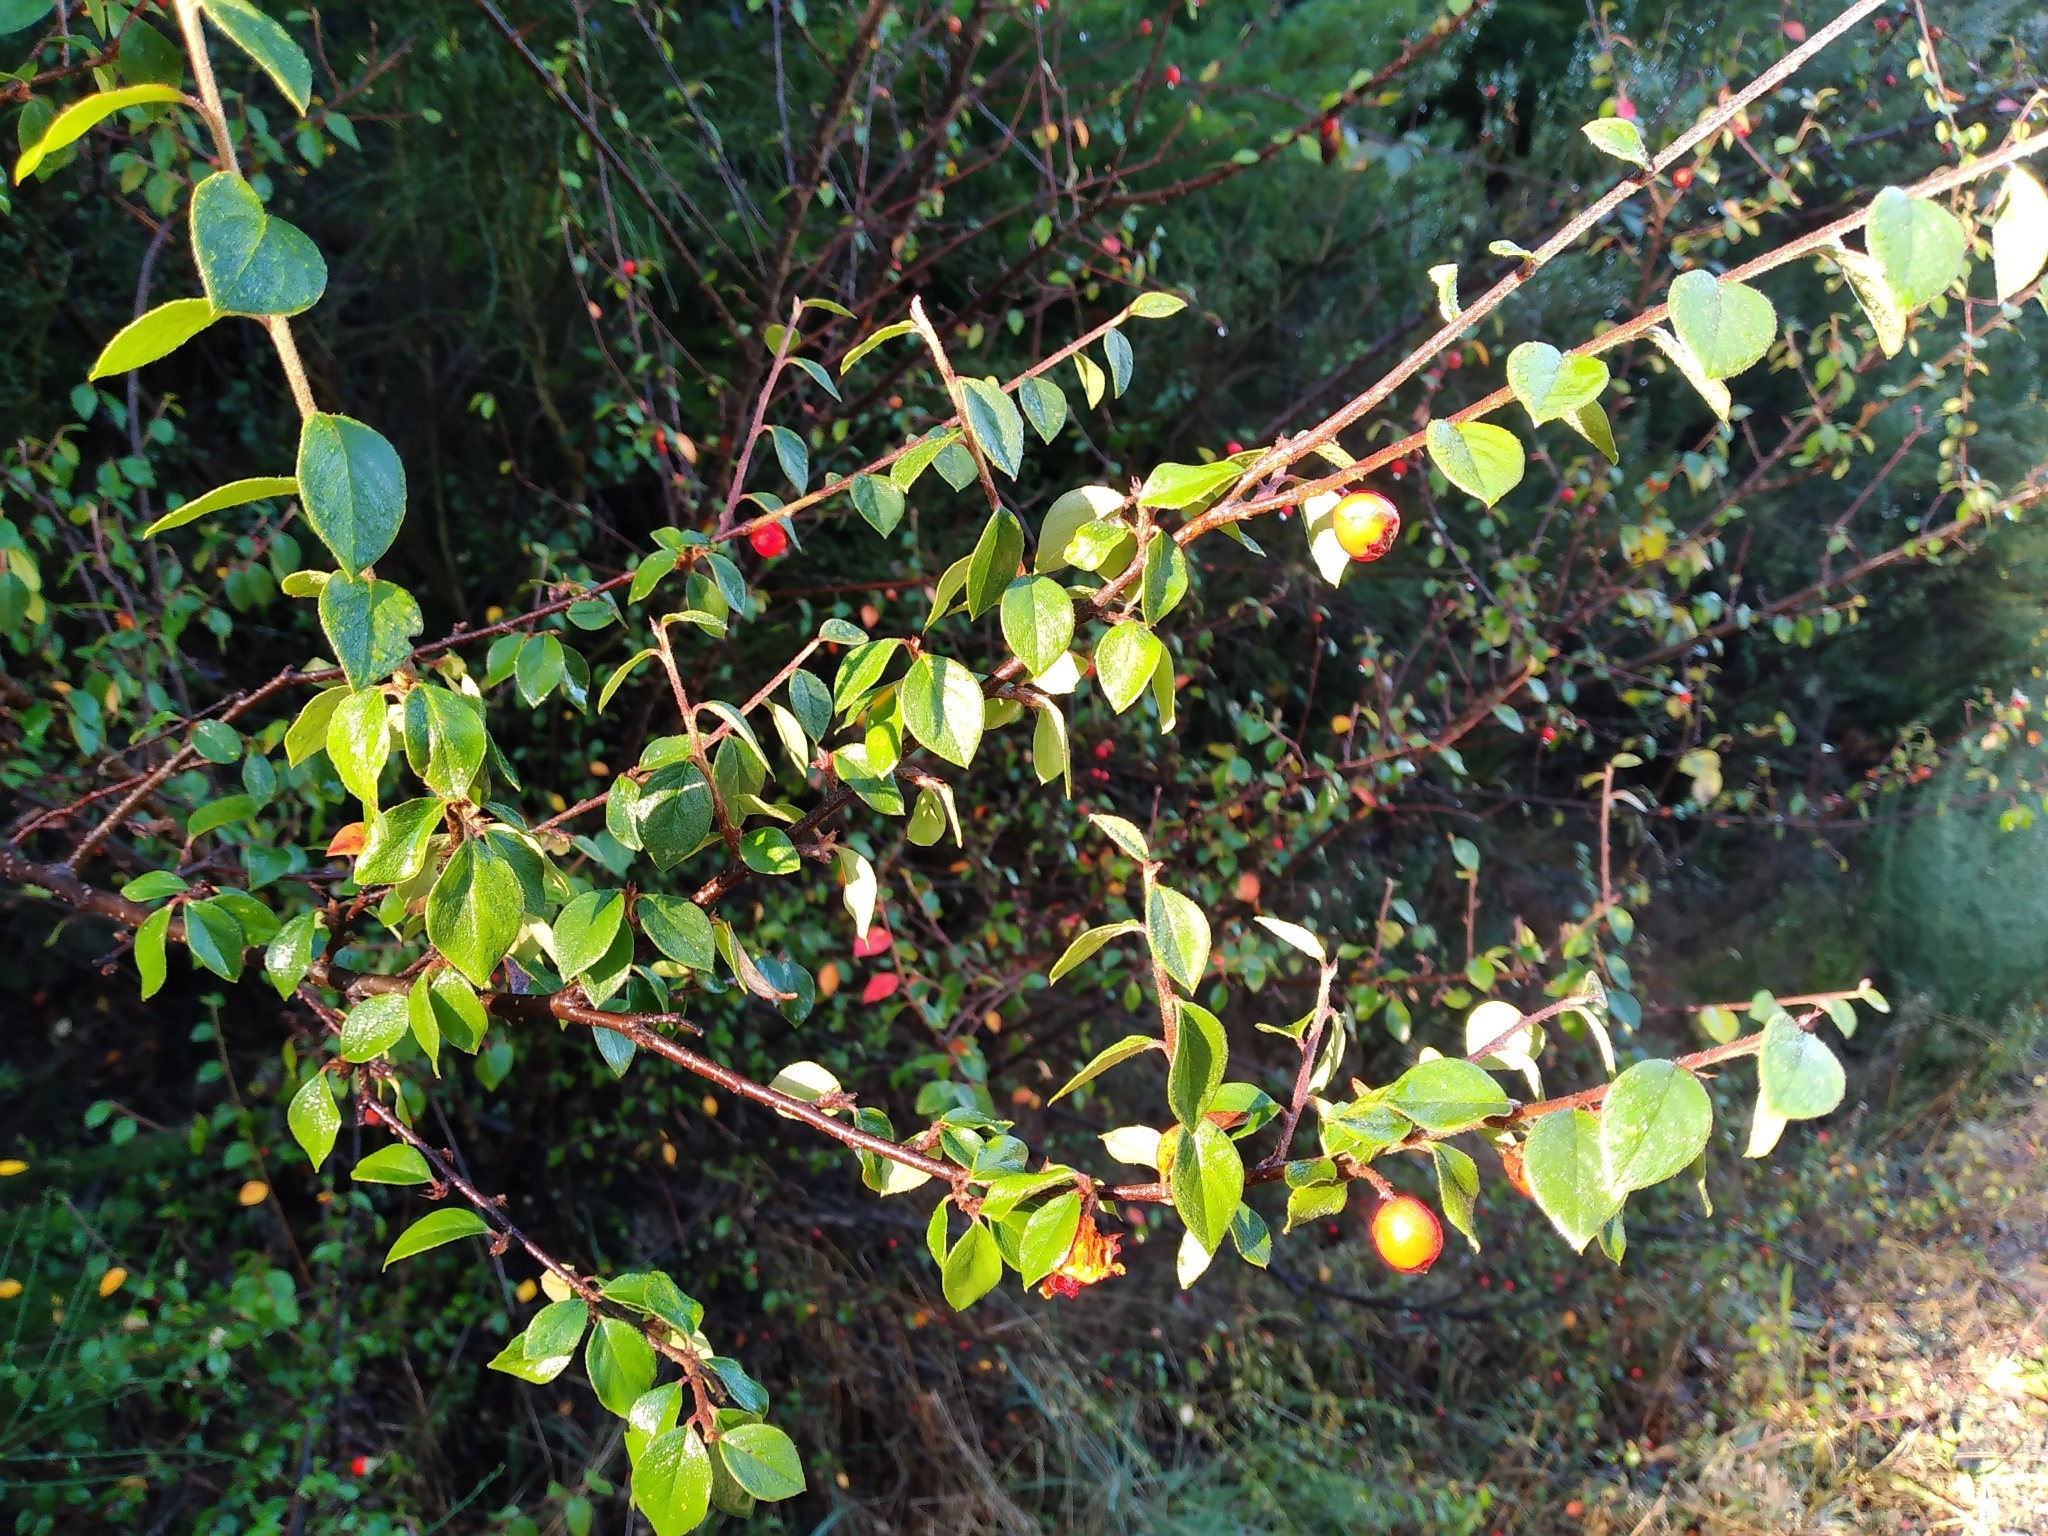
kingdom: Plantae
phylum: Tracheophyta
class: Magnoliopsida
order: Rosales
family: Rosaceae
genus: Cotoneaster
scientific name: Cotoneaster simonsii
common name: Himalayan cotoneaster
